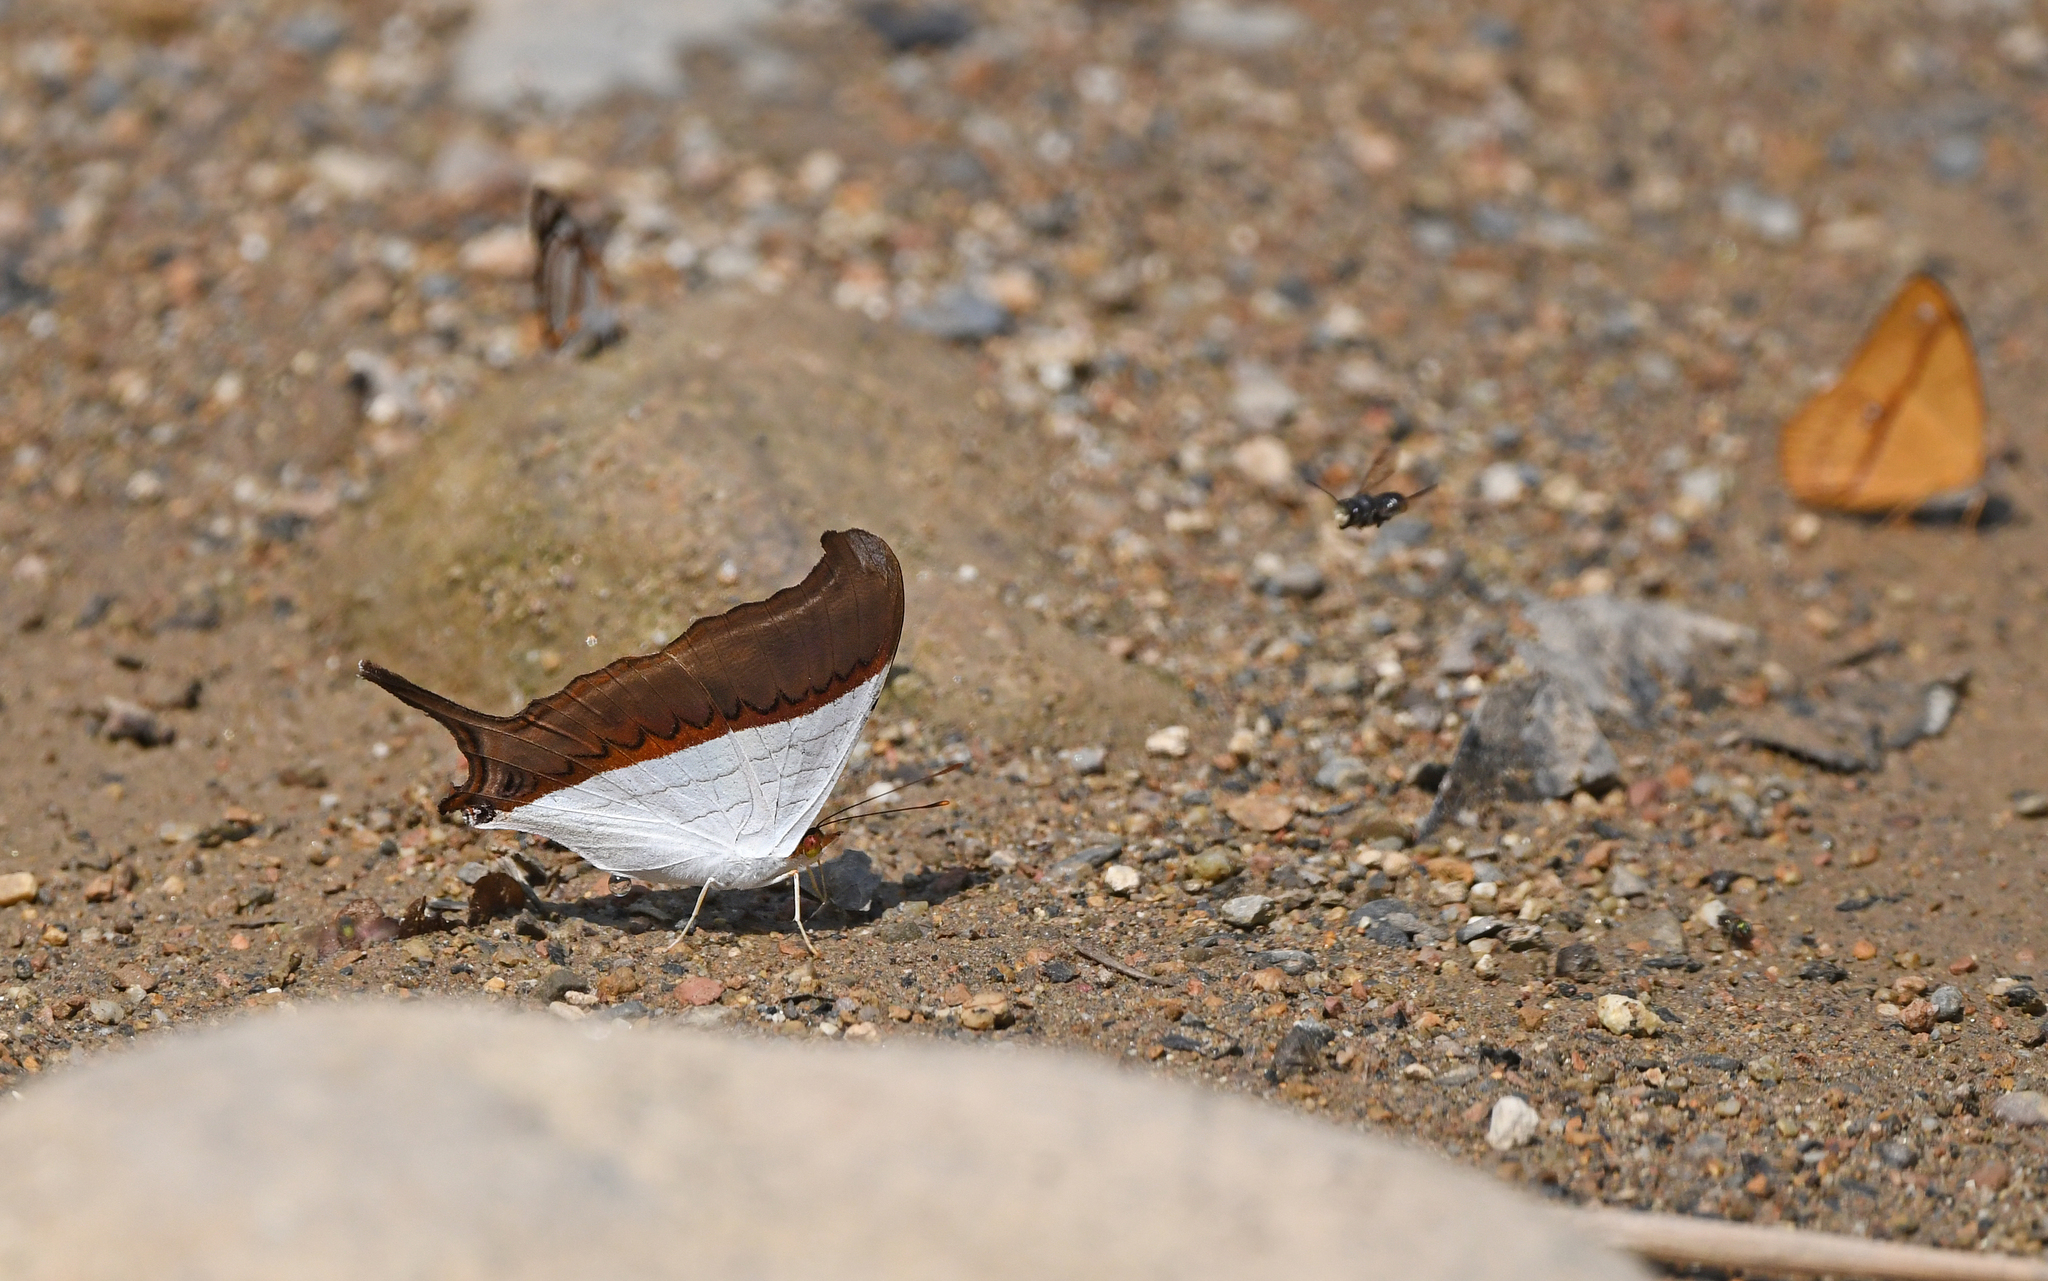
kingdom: Animalia
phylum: Arthropoda
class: Insecta
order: Lepidoptera
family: Nymphalidae
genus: Marpesia
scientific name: Marpesia zerynthia
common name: Waiter daggerwing
